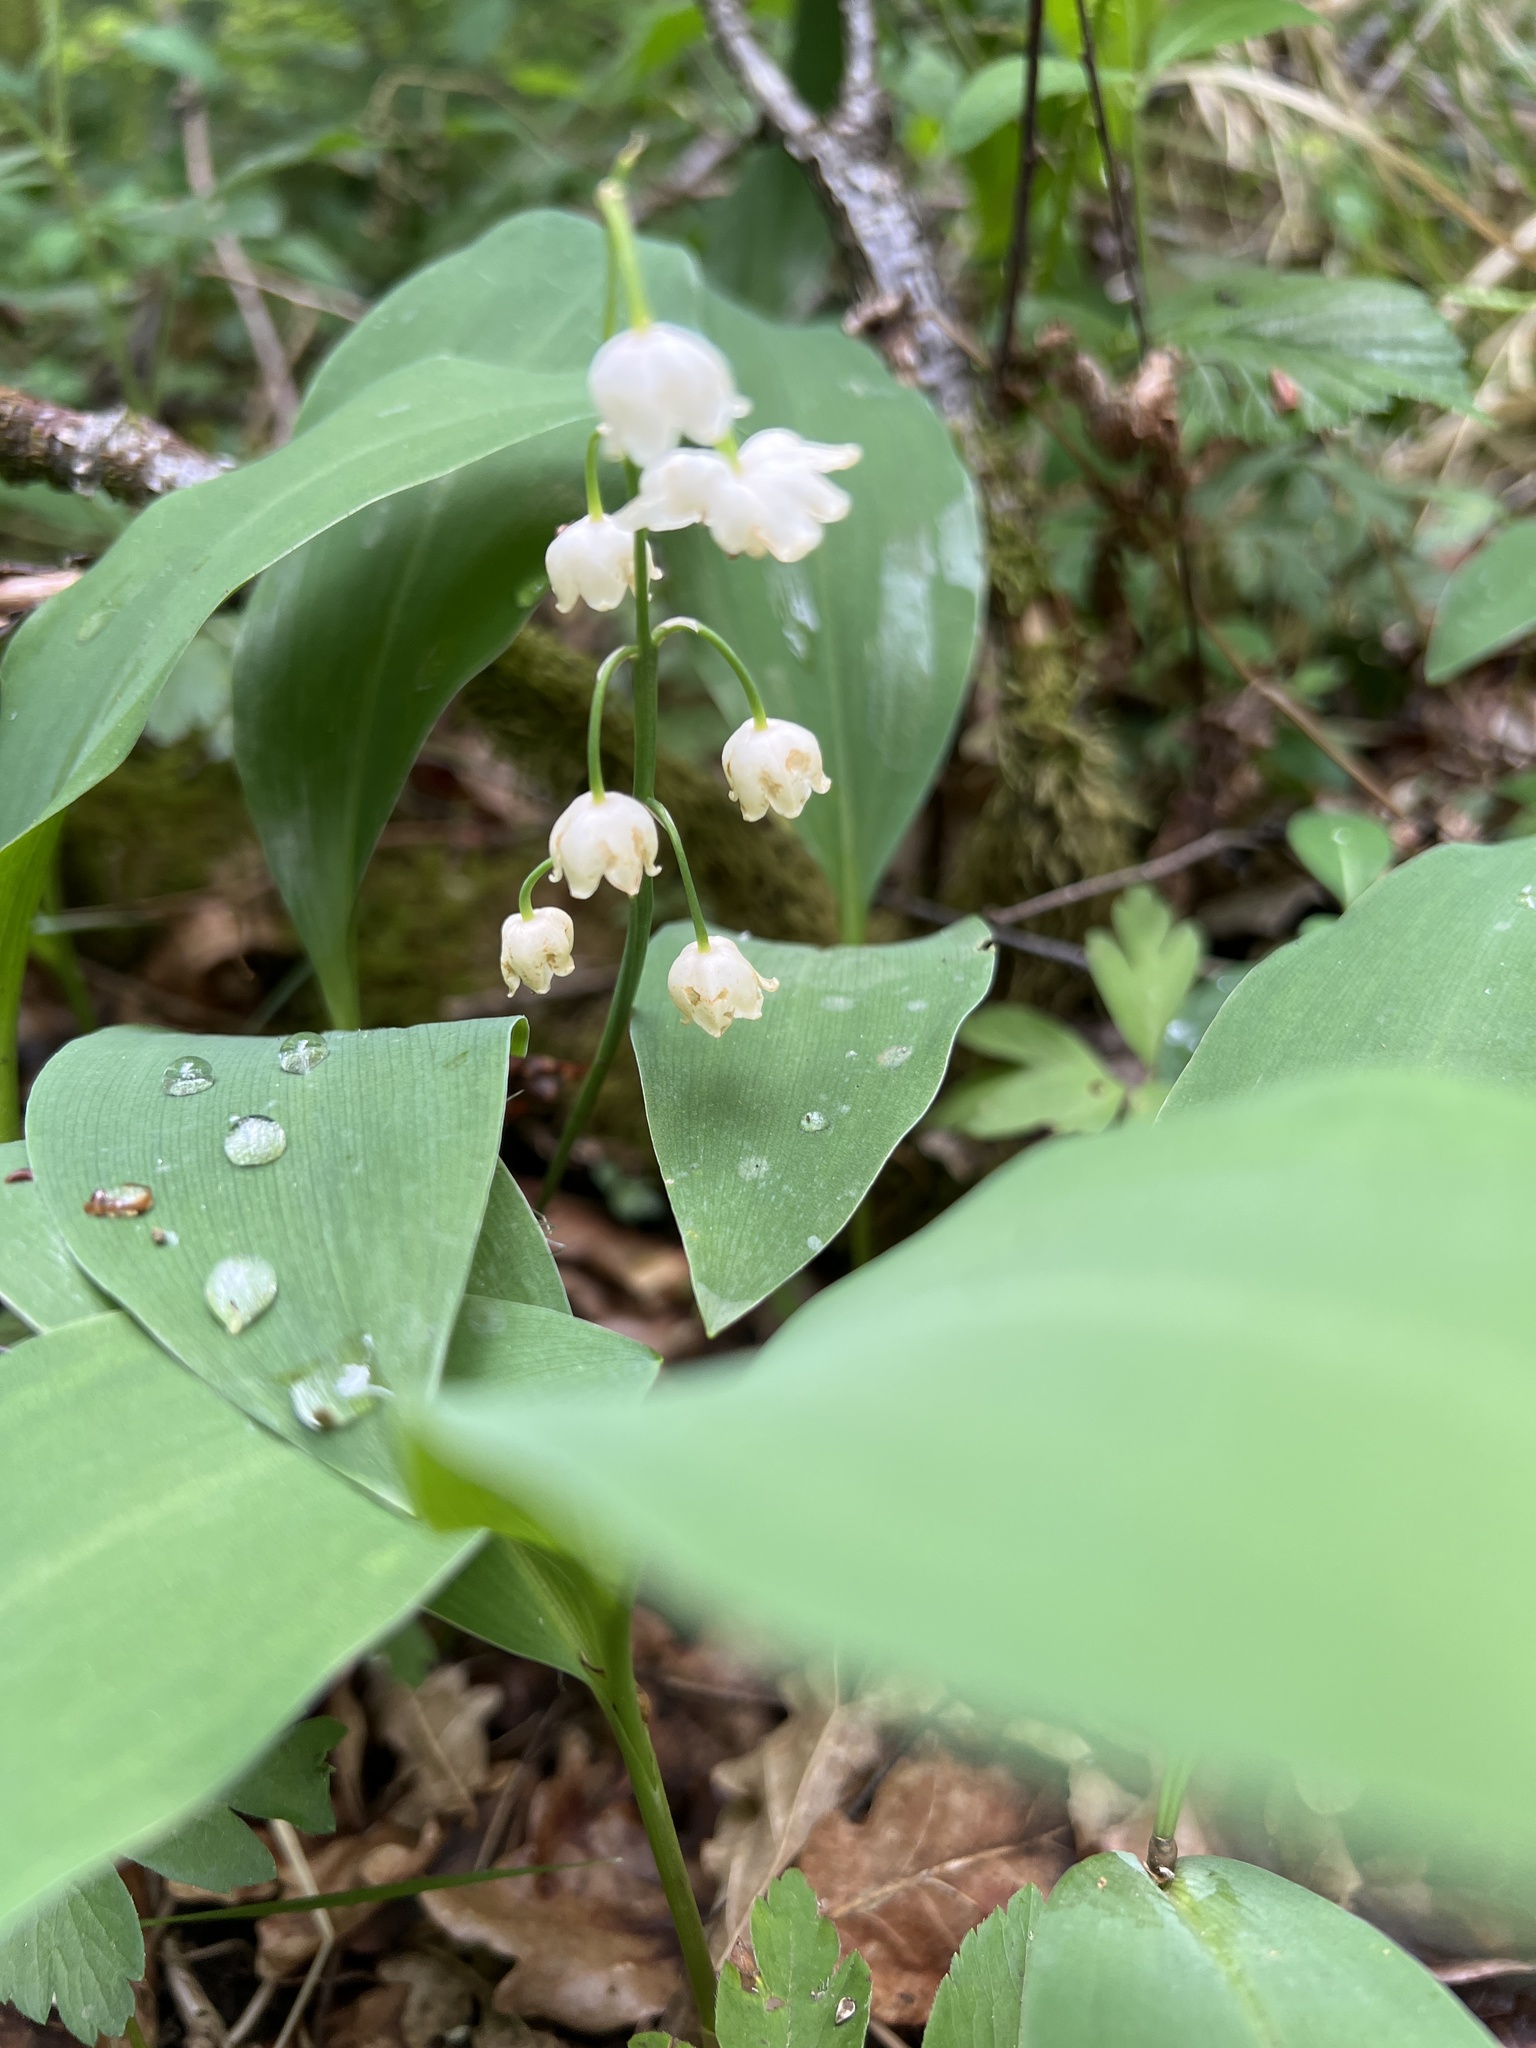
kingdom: Plantae
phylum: Tracheophyta
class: Liliopsida
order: Asparagales
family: Asparagaceae
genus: Convallaria
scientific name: Convallaria majalis
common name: Lily-of-the-valley
